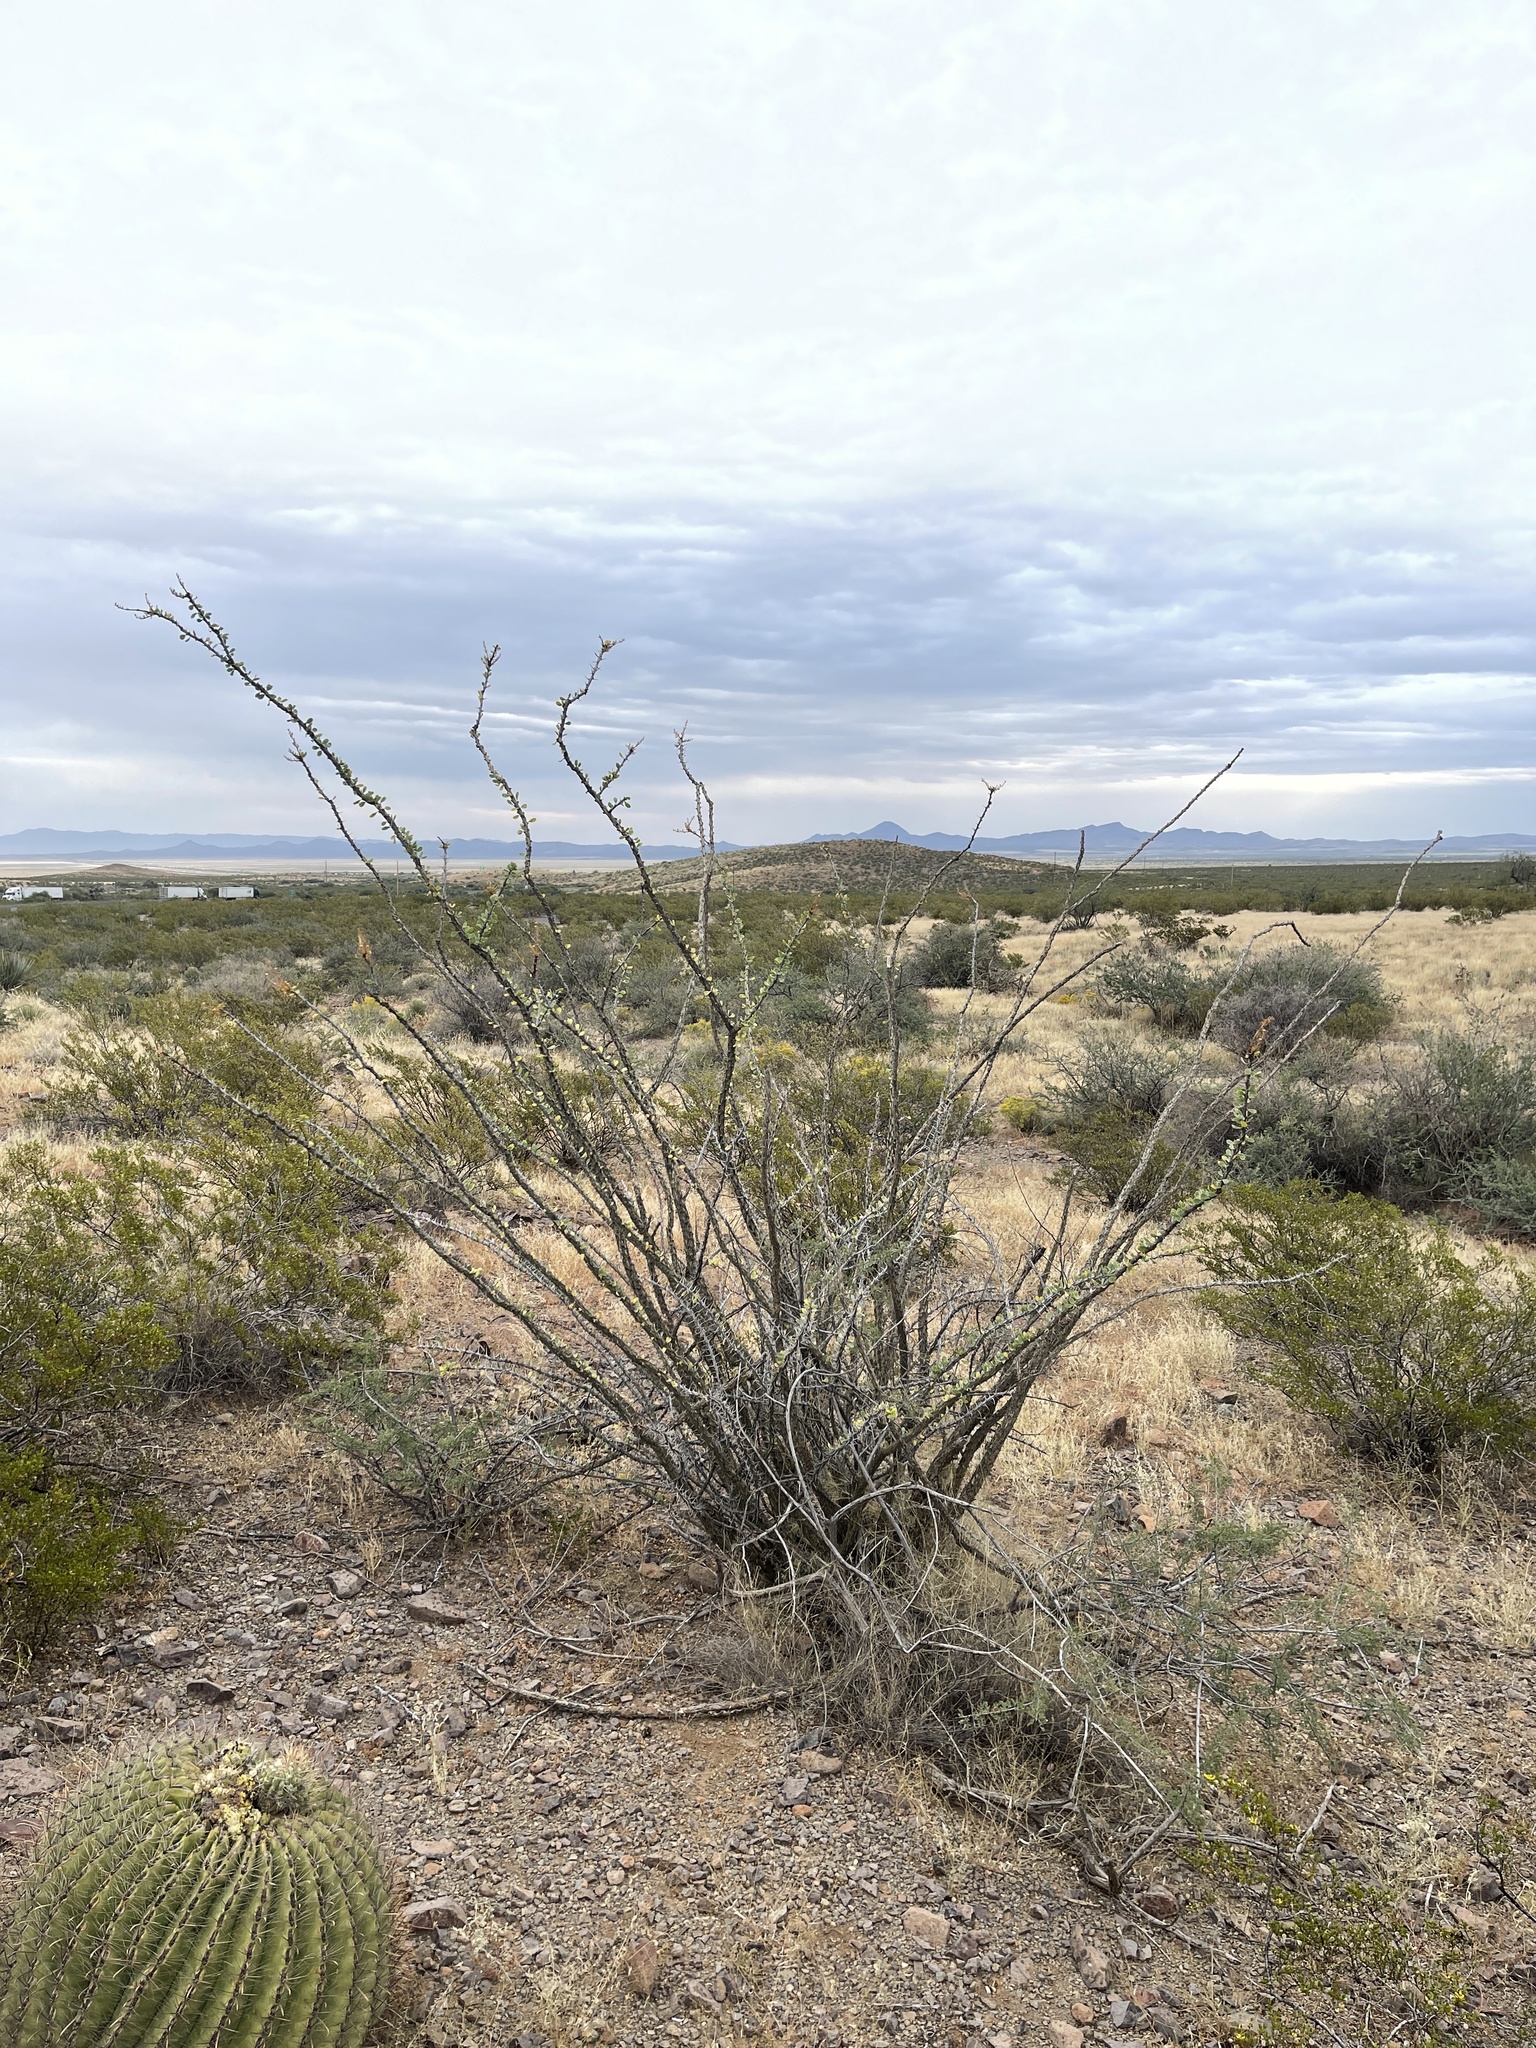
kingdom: Plantae
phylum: Tracheophyta
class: Magnoliopsida
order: Ericales
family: Fouquieriaceae
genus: Fouquieria
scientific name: Fouquieria splendens
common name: Vine-cactus
